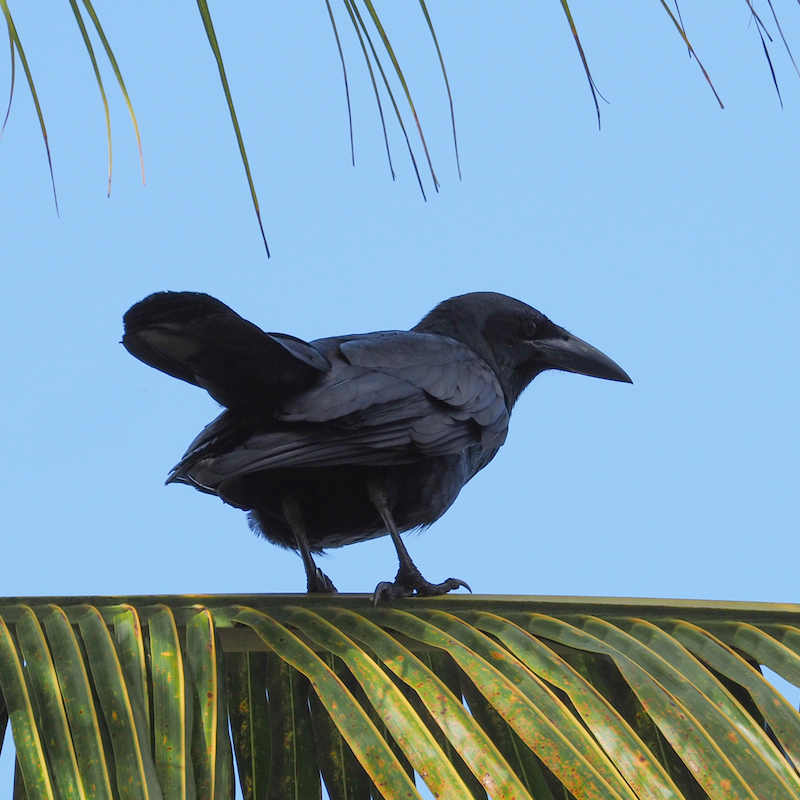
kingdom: Animalia
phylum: Chordata
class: Aves
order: Passeriformes
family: Corvidae
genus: Corvus
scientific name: Corvus nasicus
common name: Cuban crow
